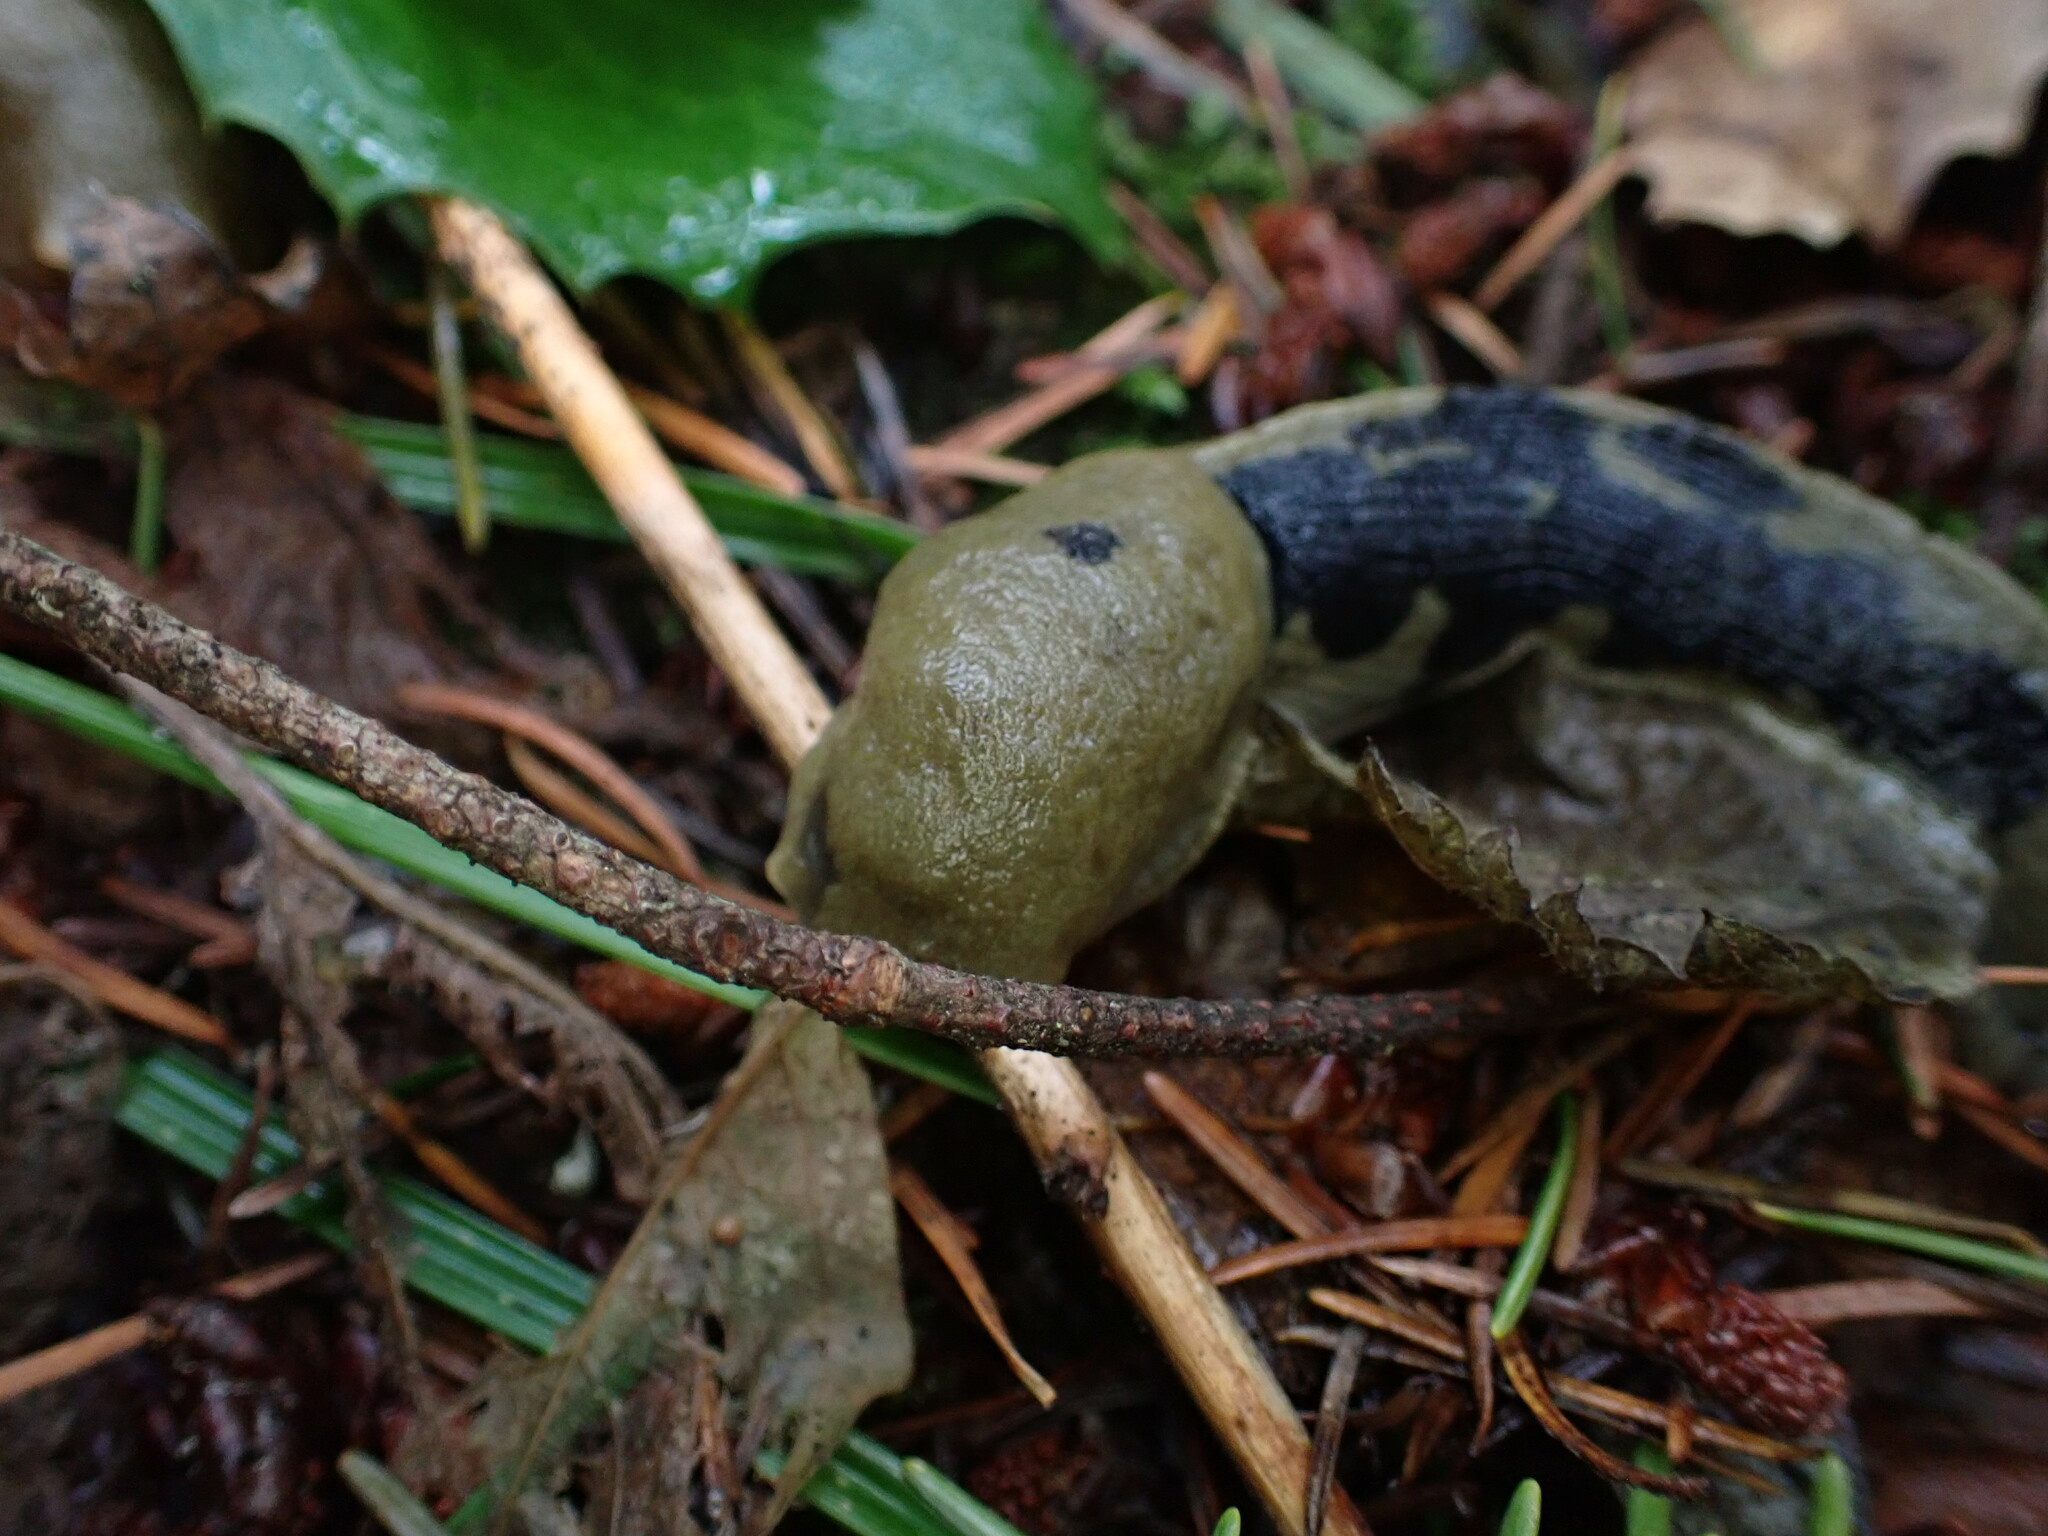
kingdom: Animalia
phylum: Mollusca
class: Gastropoda
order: Stylommatophora
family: Ariolimacidae
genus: Ariolimax
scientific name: Ariolimax columbianus
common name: Pacific banana slug
